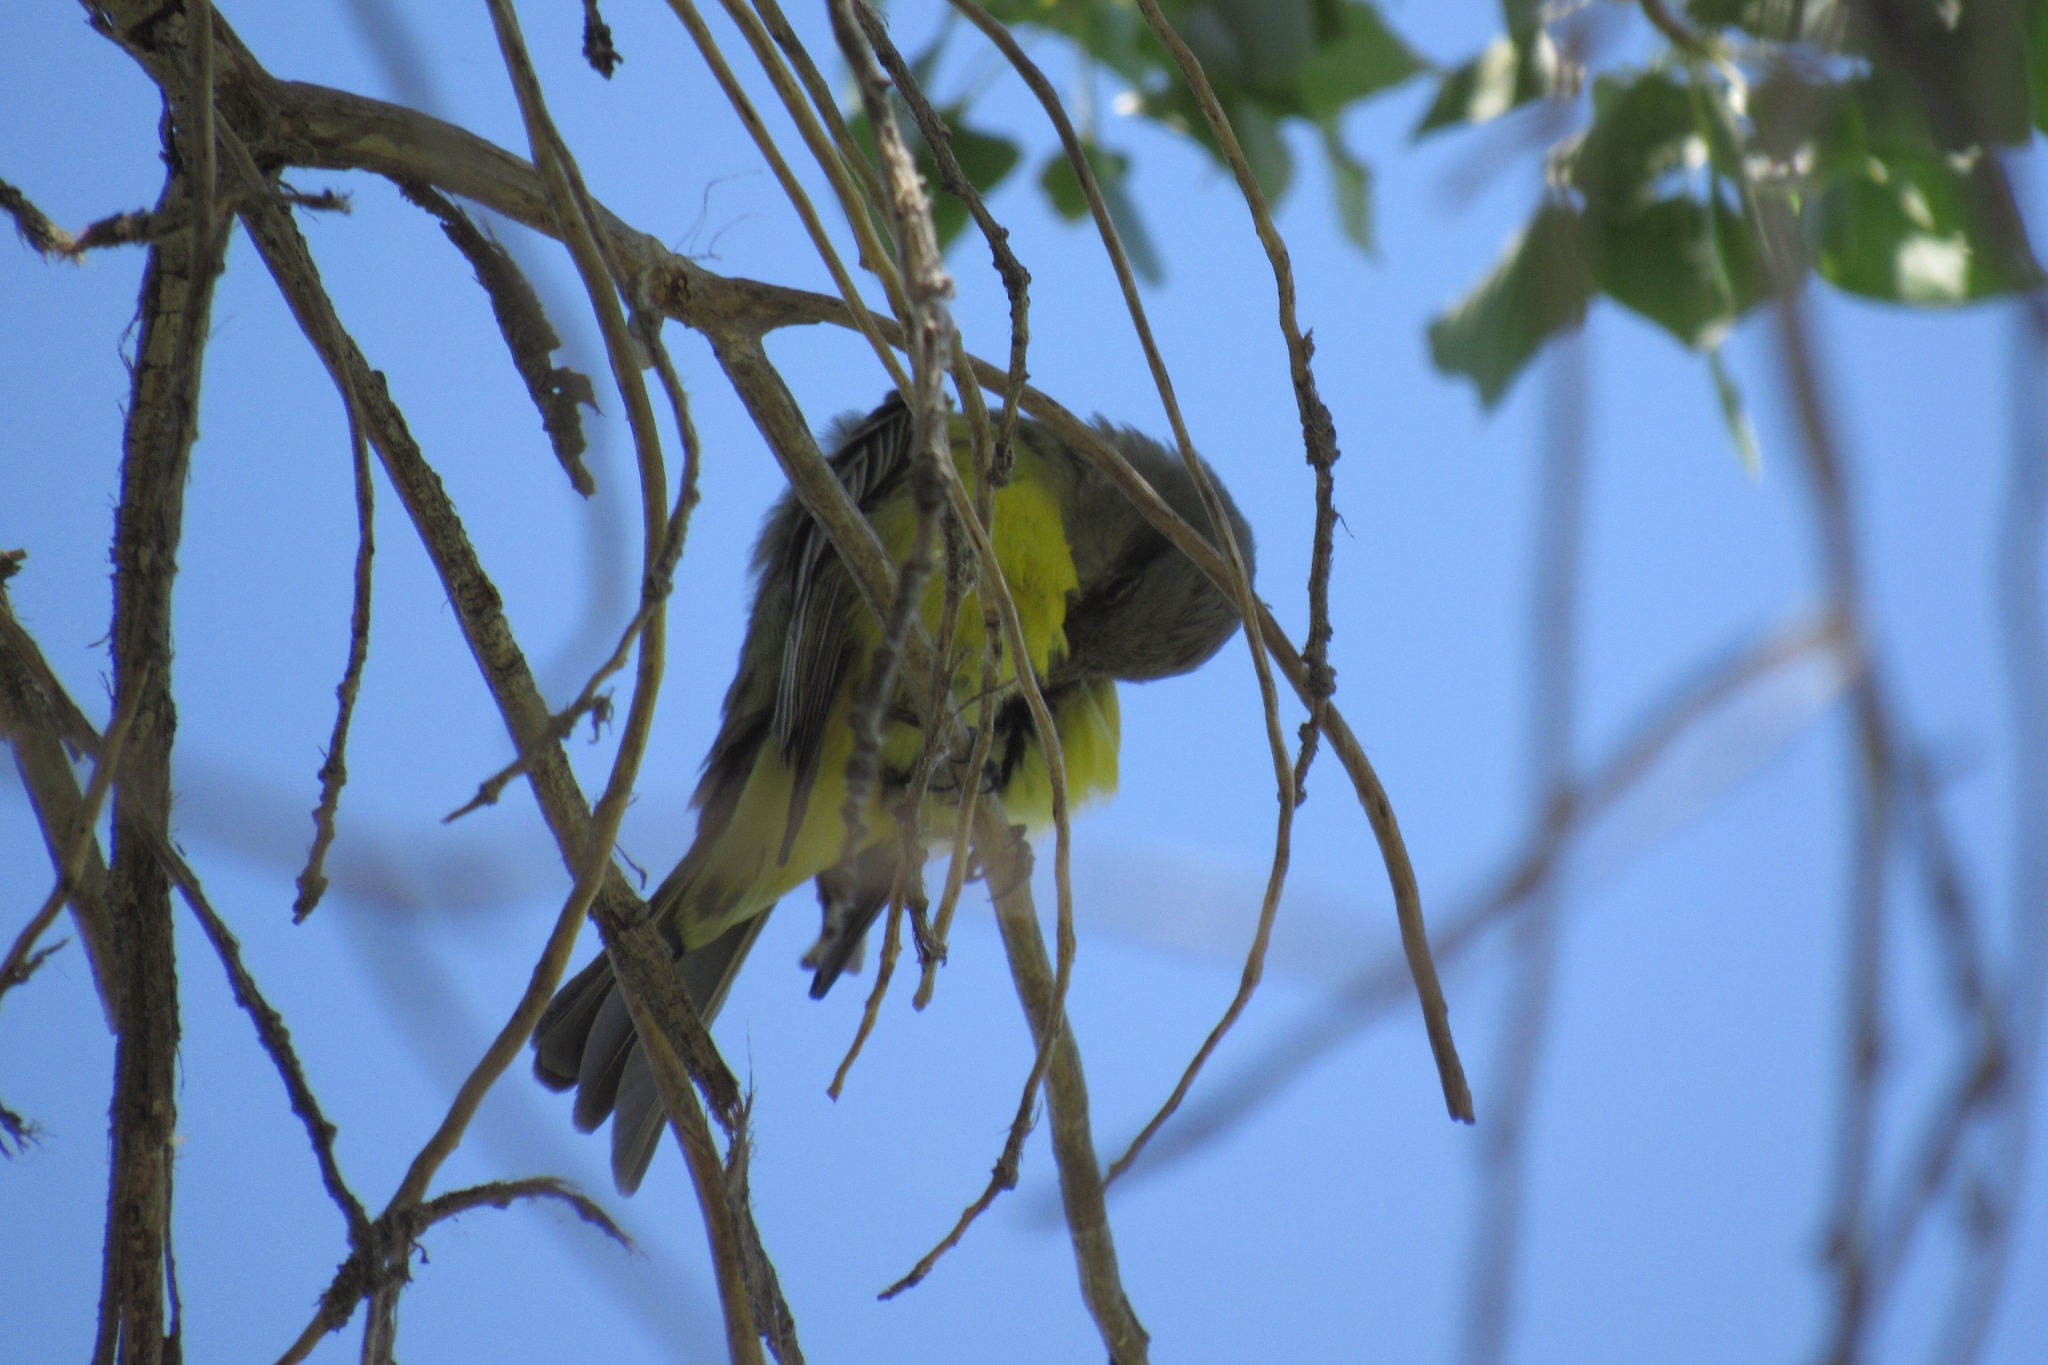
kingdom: Animalia
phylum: Chordata
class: Aves
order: Passeriformes
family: Tyrannidae
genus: Tyrannus
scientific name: Tyrannus melancholicus
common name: Tropical kingbird
